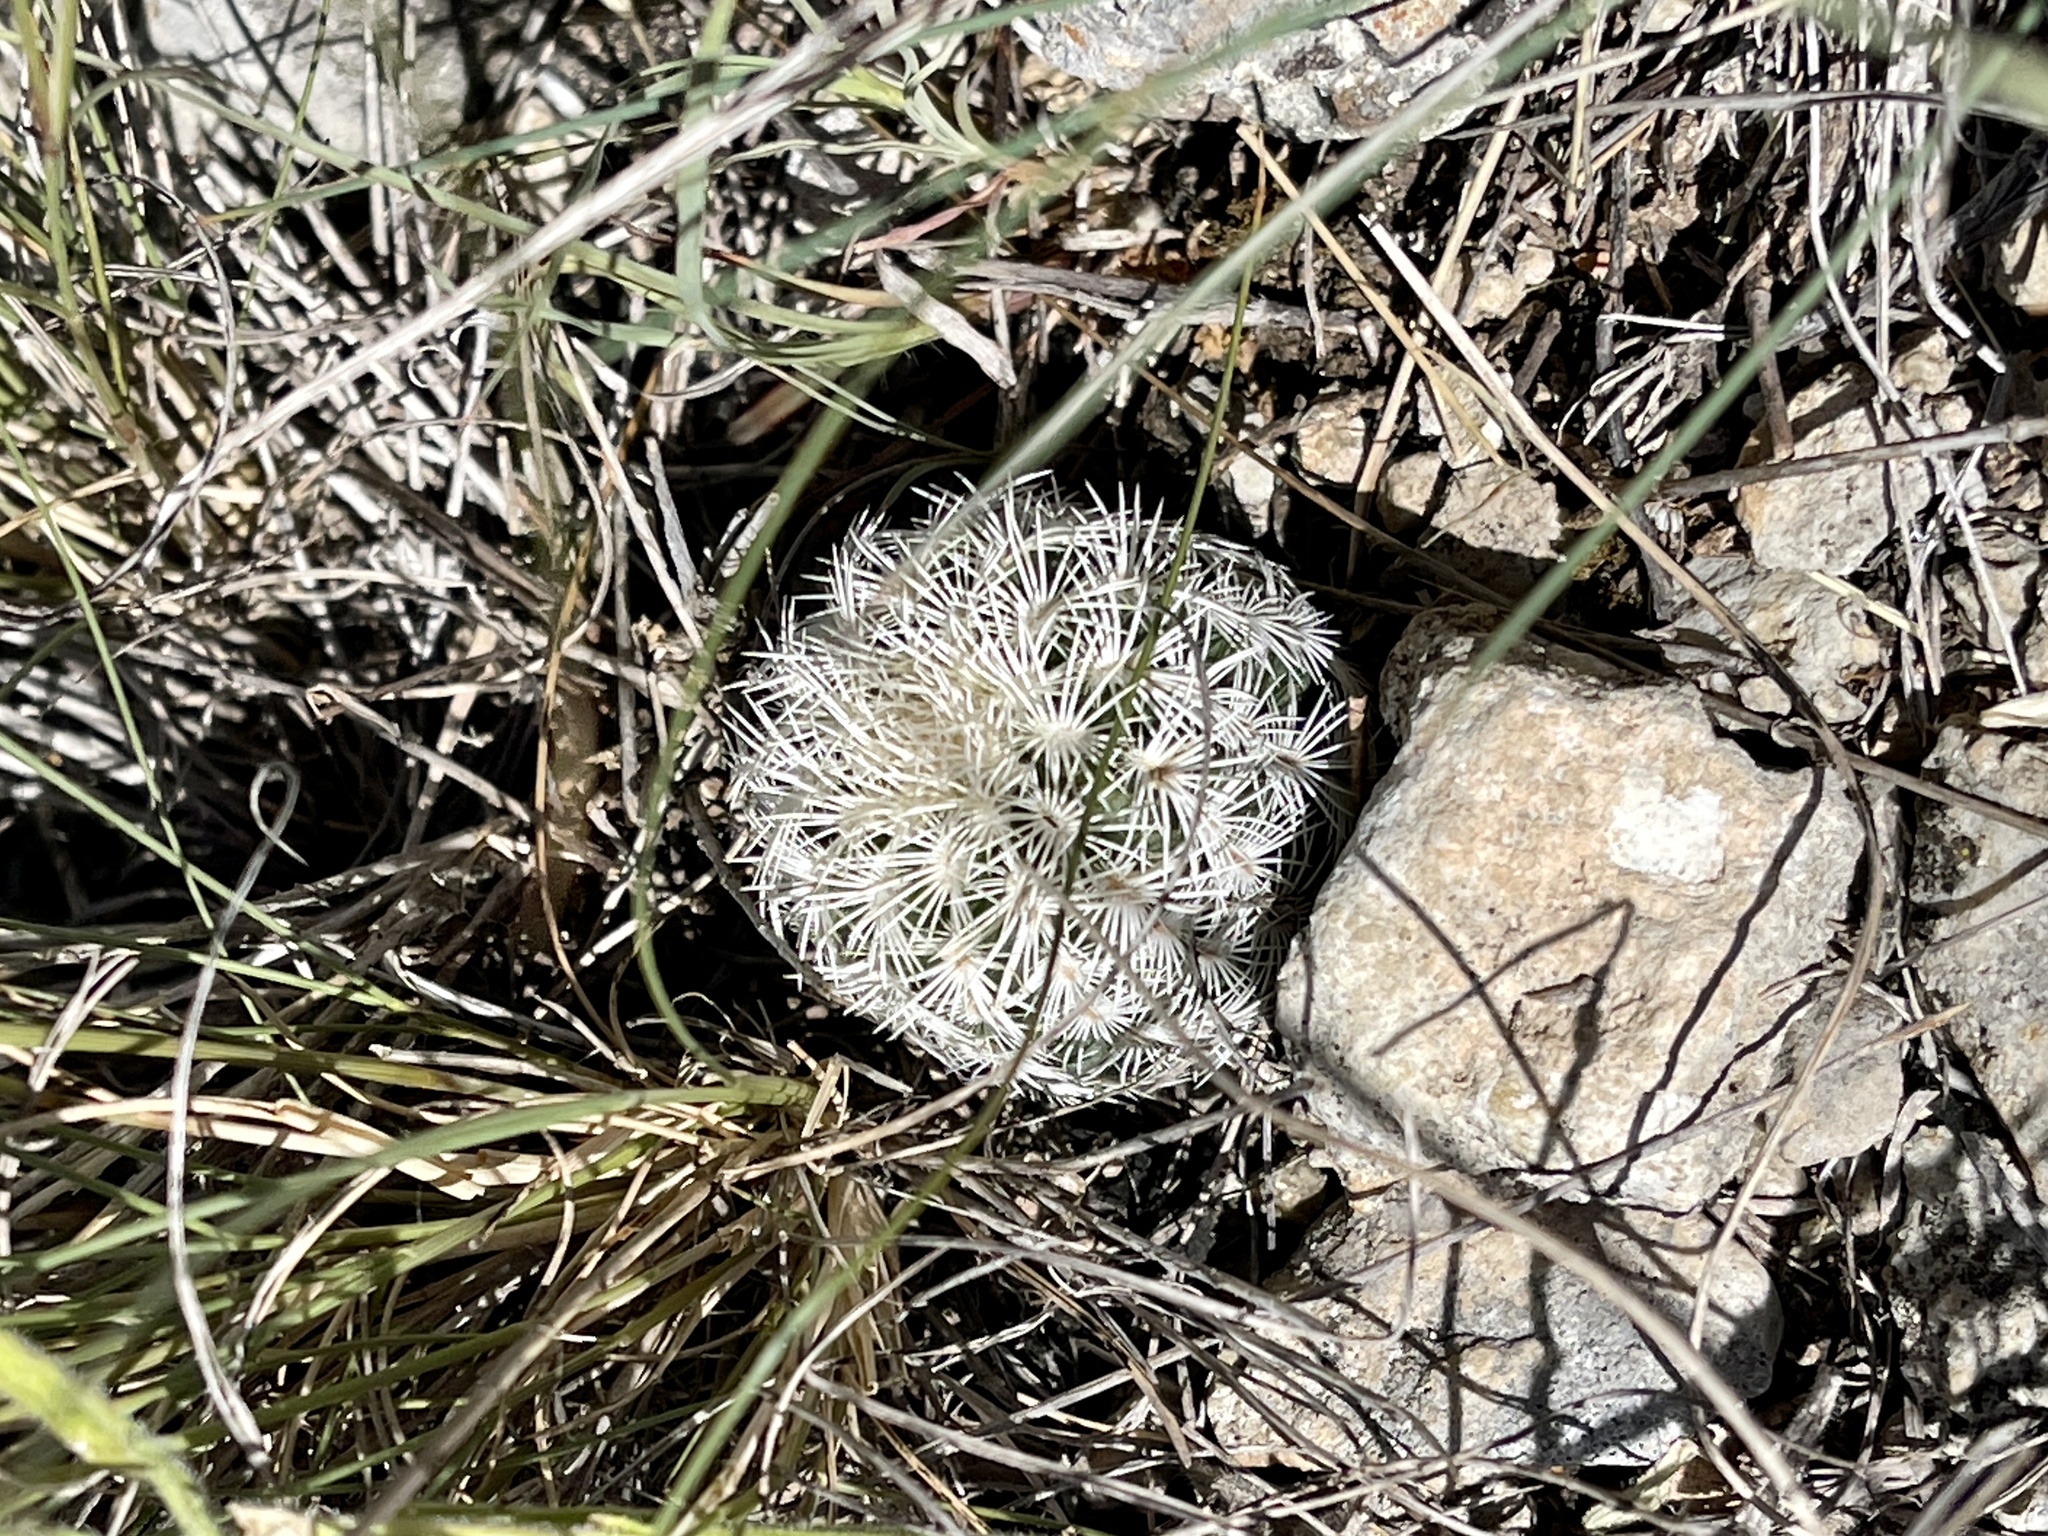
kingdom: Plantae
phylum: Tracheophyta
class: Magnoliopsida
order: Caryophyllales
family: Cactaceae
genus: Echinocereus
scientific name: Echinocereus reichenbachii
